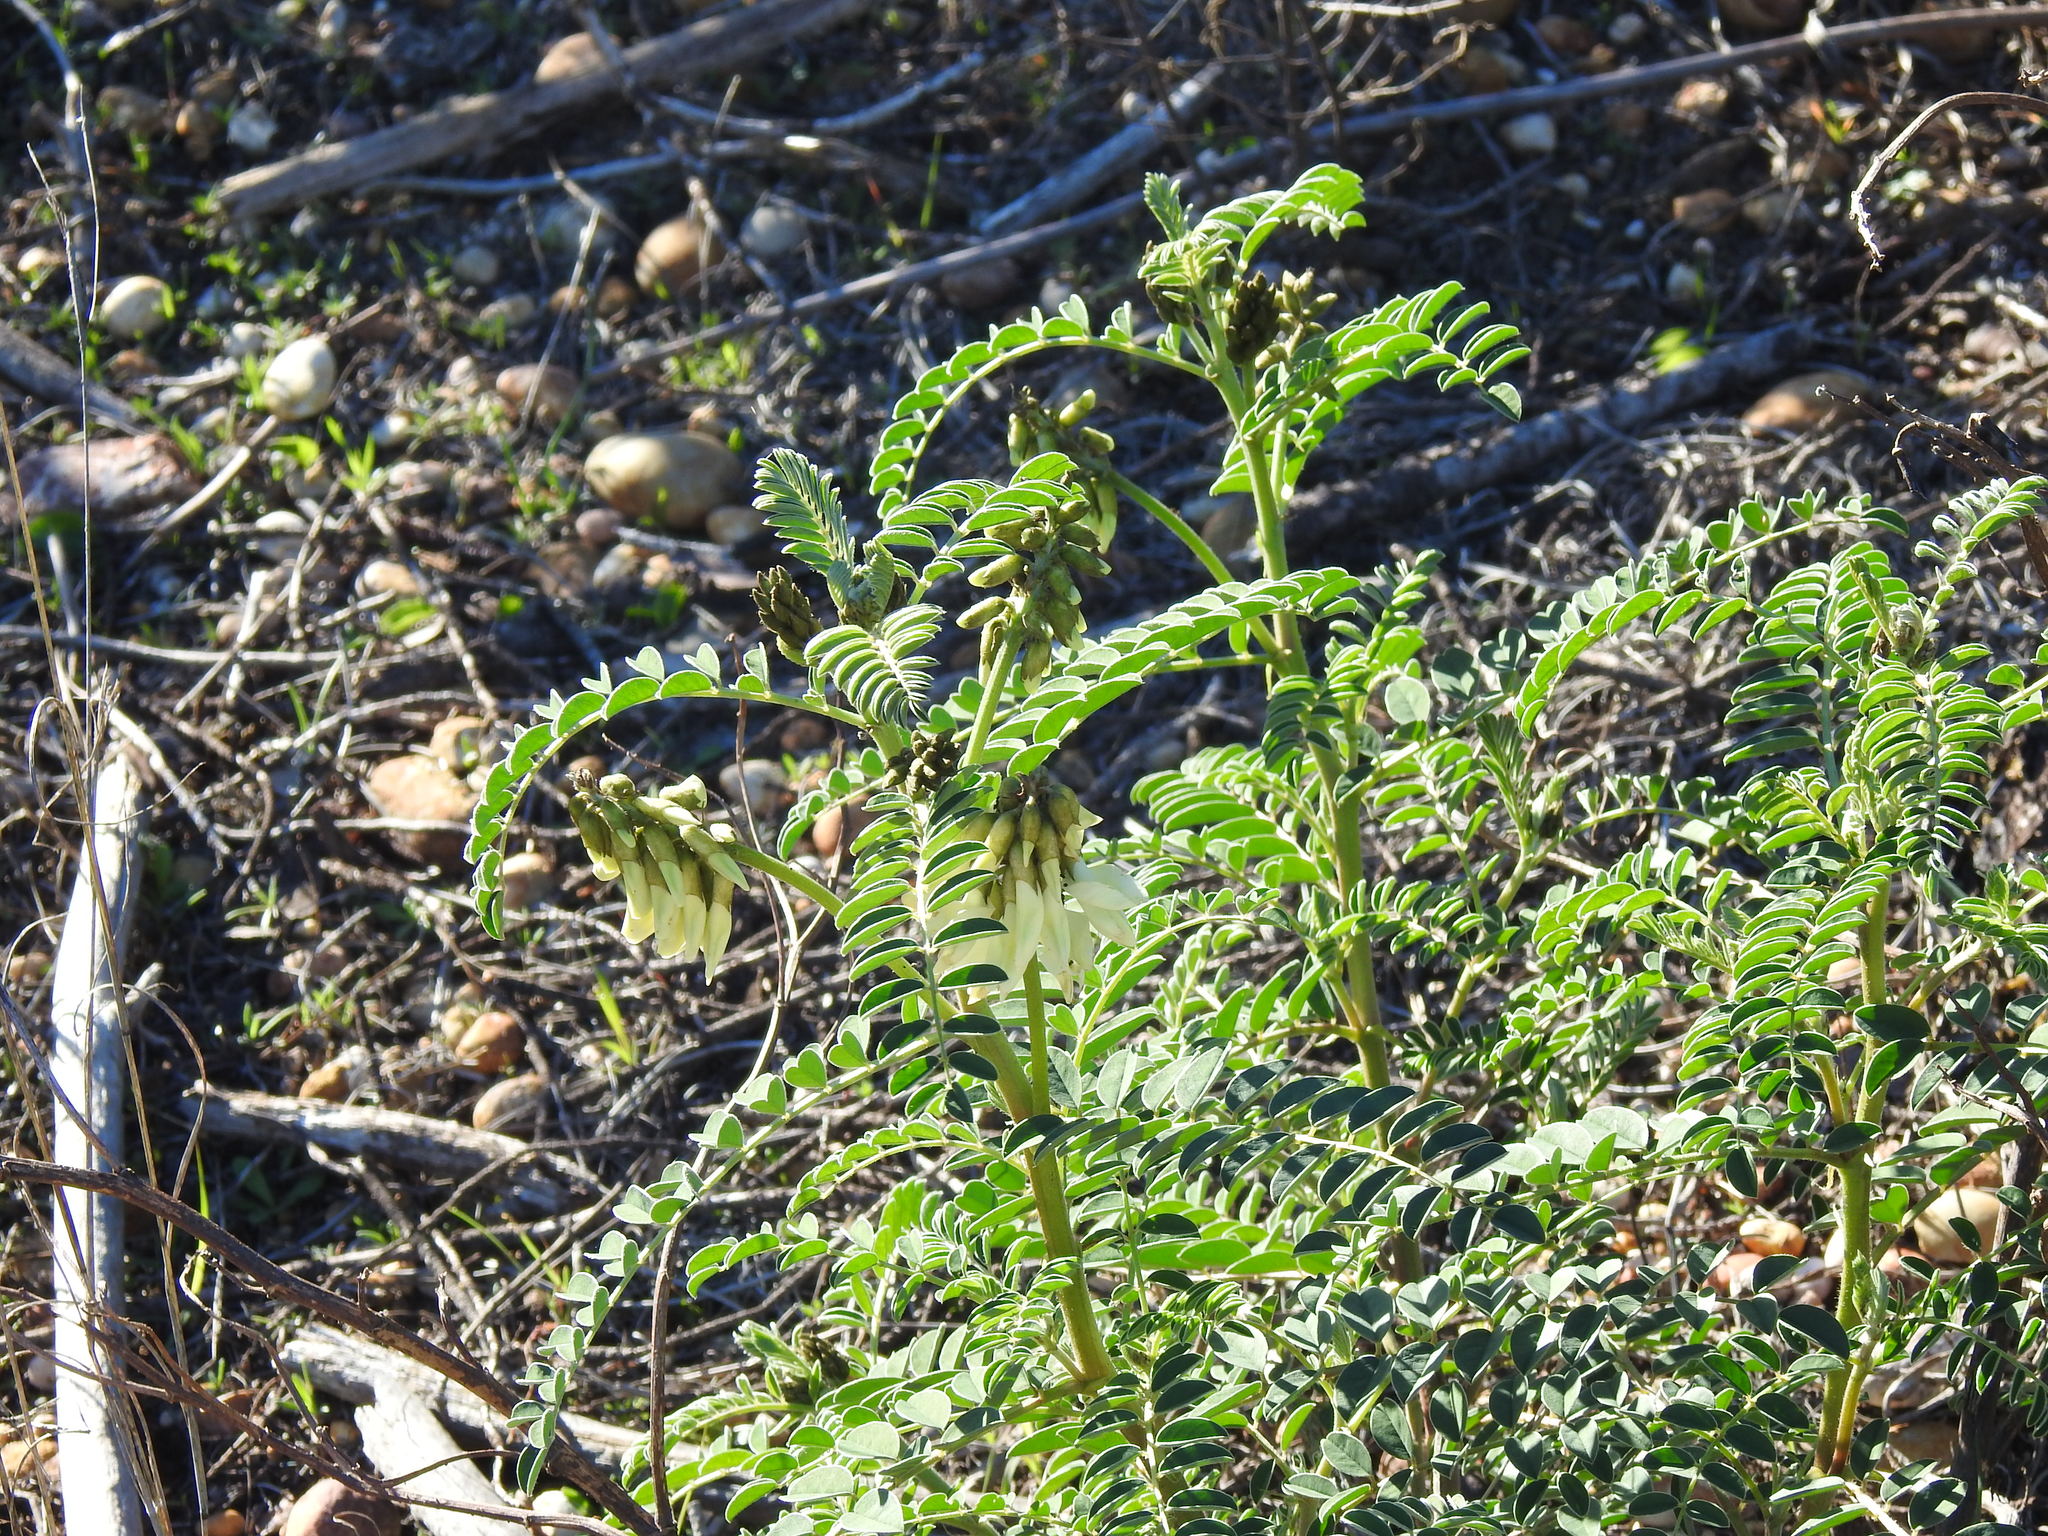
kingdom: Plantae
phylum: Tracheophyta
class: Magnoliopsida
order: Fabales
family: Fabaceae
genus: Erophaca
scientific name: Erophaca baetica
